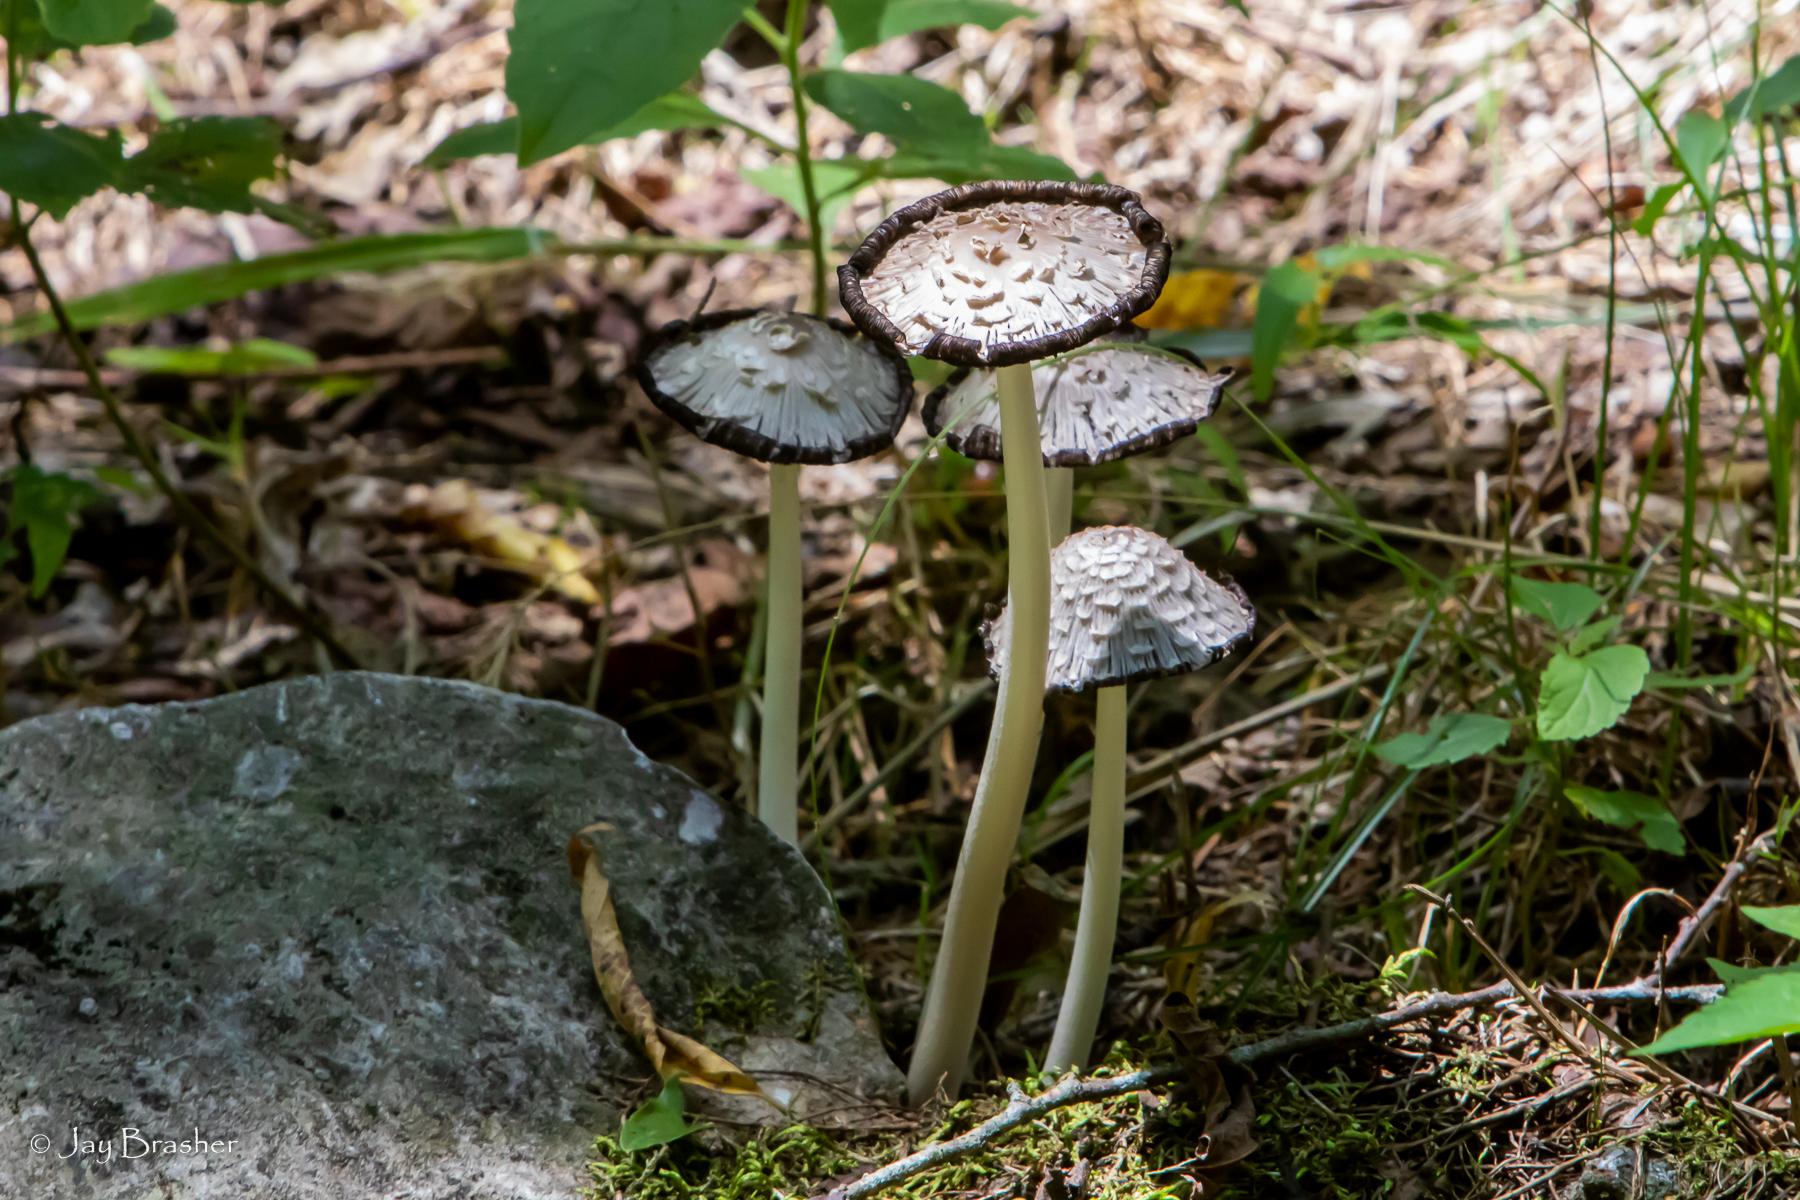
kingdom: Fungi
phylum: Basidiomycota
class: Agaricomycetes
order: Agaricales
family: Psathyrellaceae
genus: Coprinopsis
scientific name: Coprinopsis variegata
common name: Scaly ink cap
